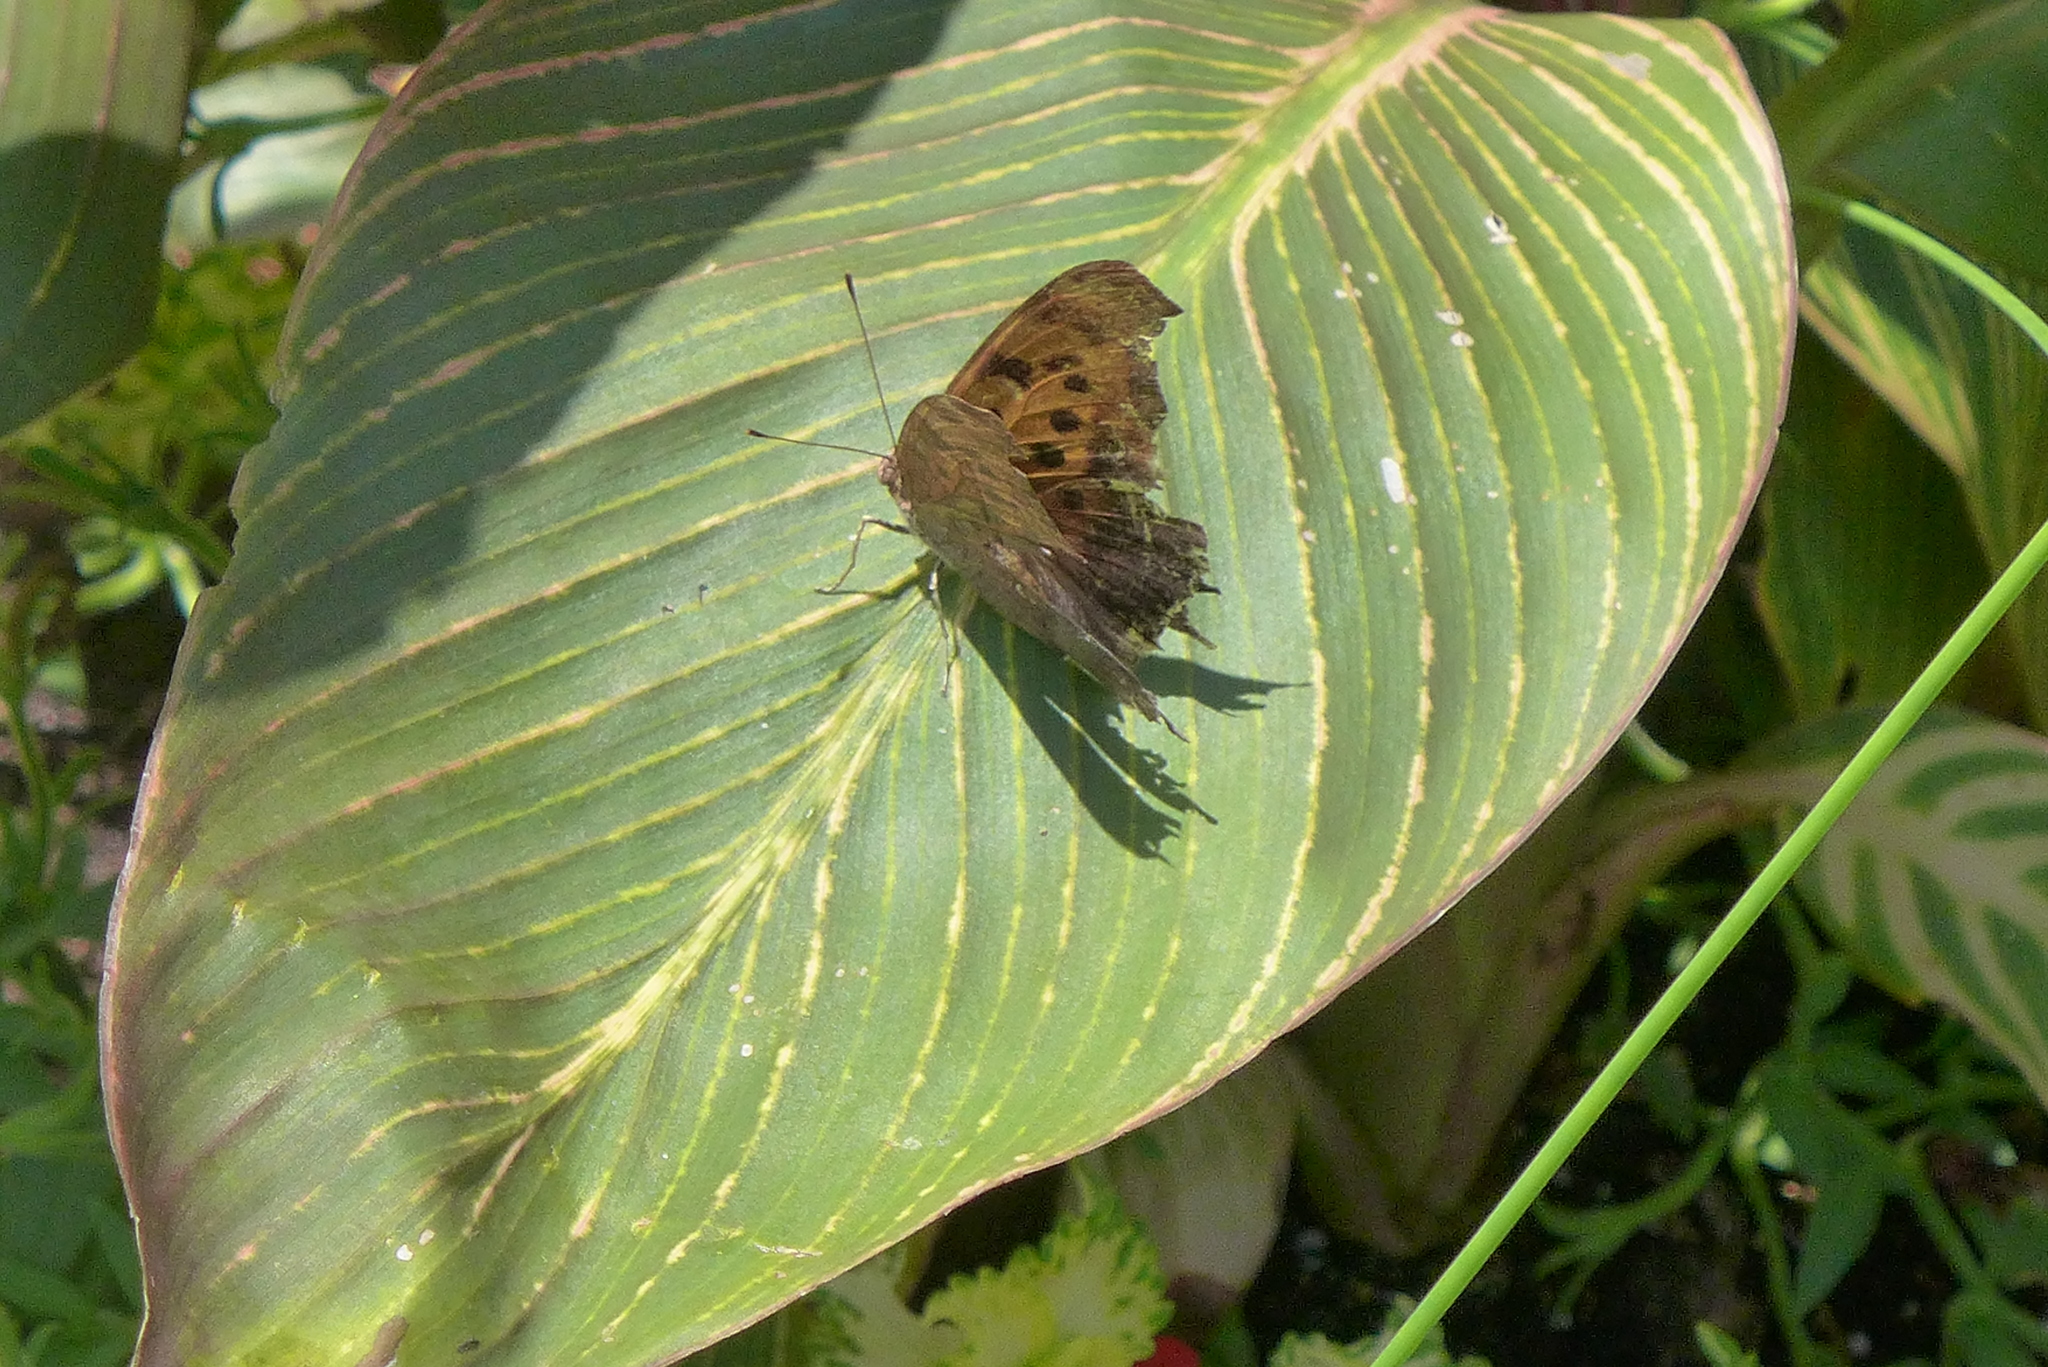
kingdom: Animalia
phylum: Arthropoda
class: Insecta
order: Lepidoptera
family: Nymphalidae
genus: Polygonia
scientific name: Polygonia interrogationis
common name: Question mark
